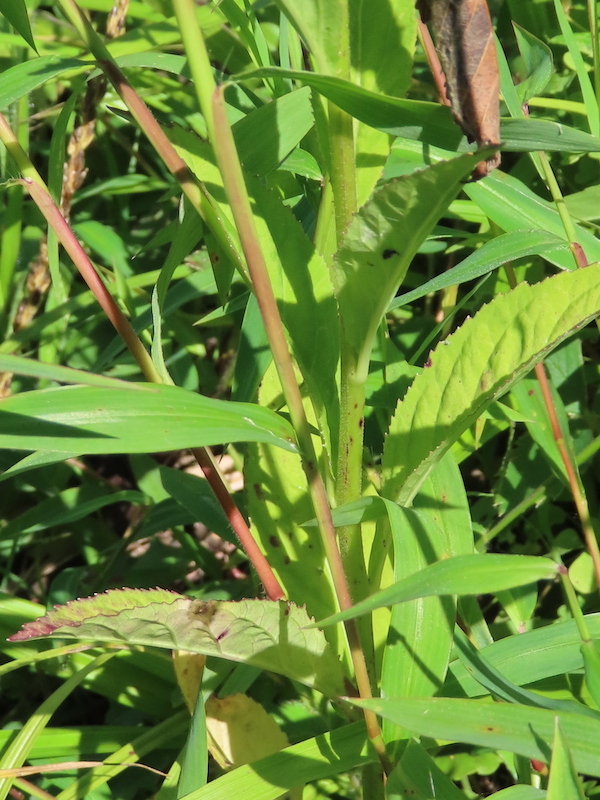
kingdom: Plantae
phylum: Tracheophyta
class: Magnoliopsida
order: Asterales
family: Campanulaceae
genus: Lobelia
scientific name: Lobelia cardinalis
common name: Cardinal flower
